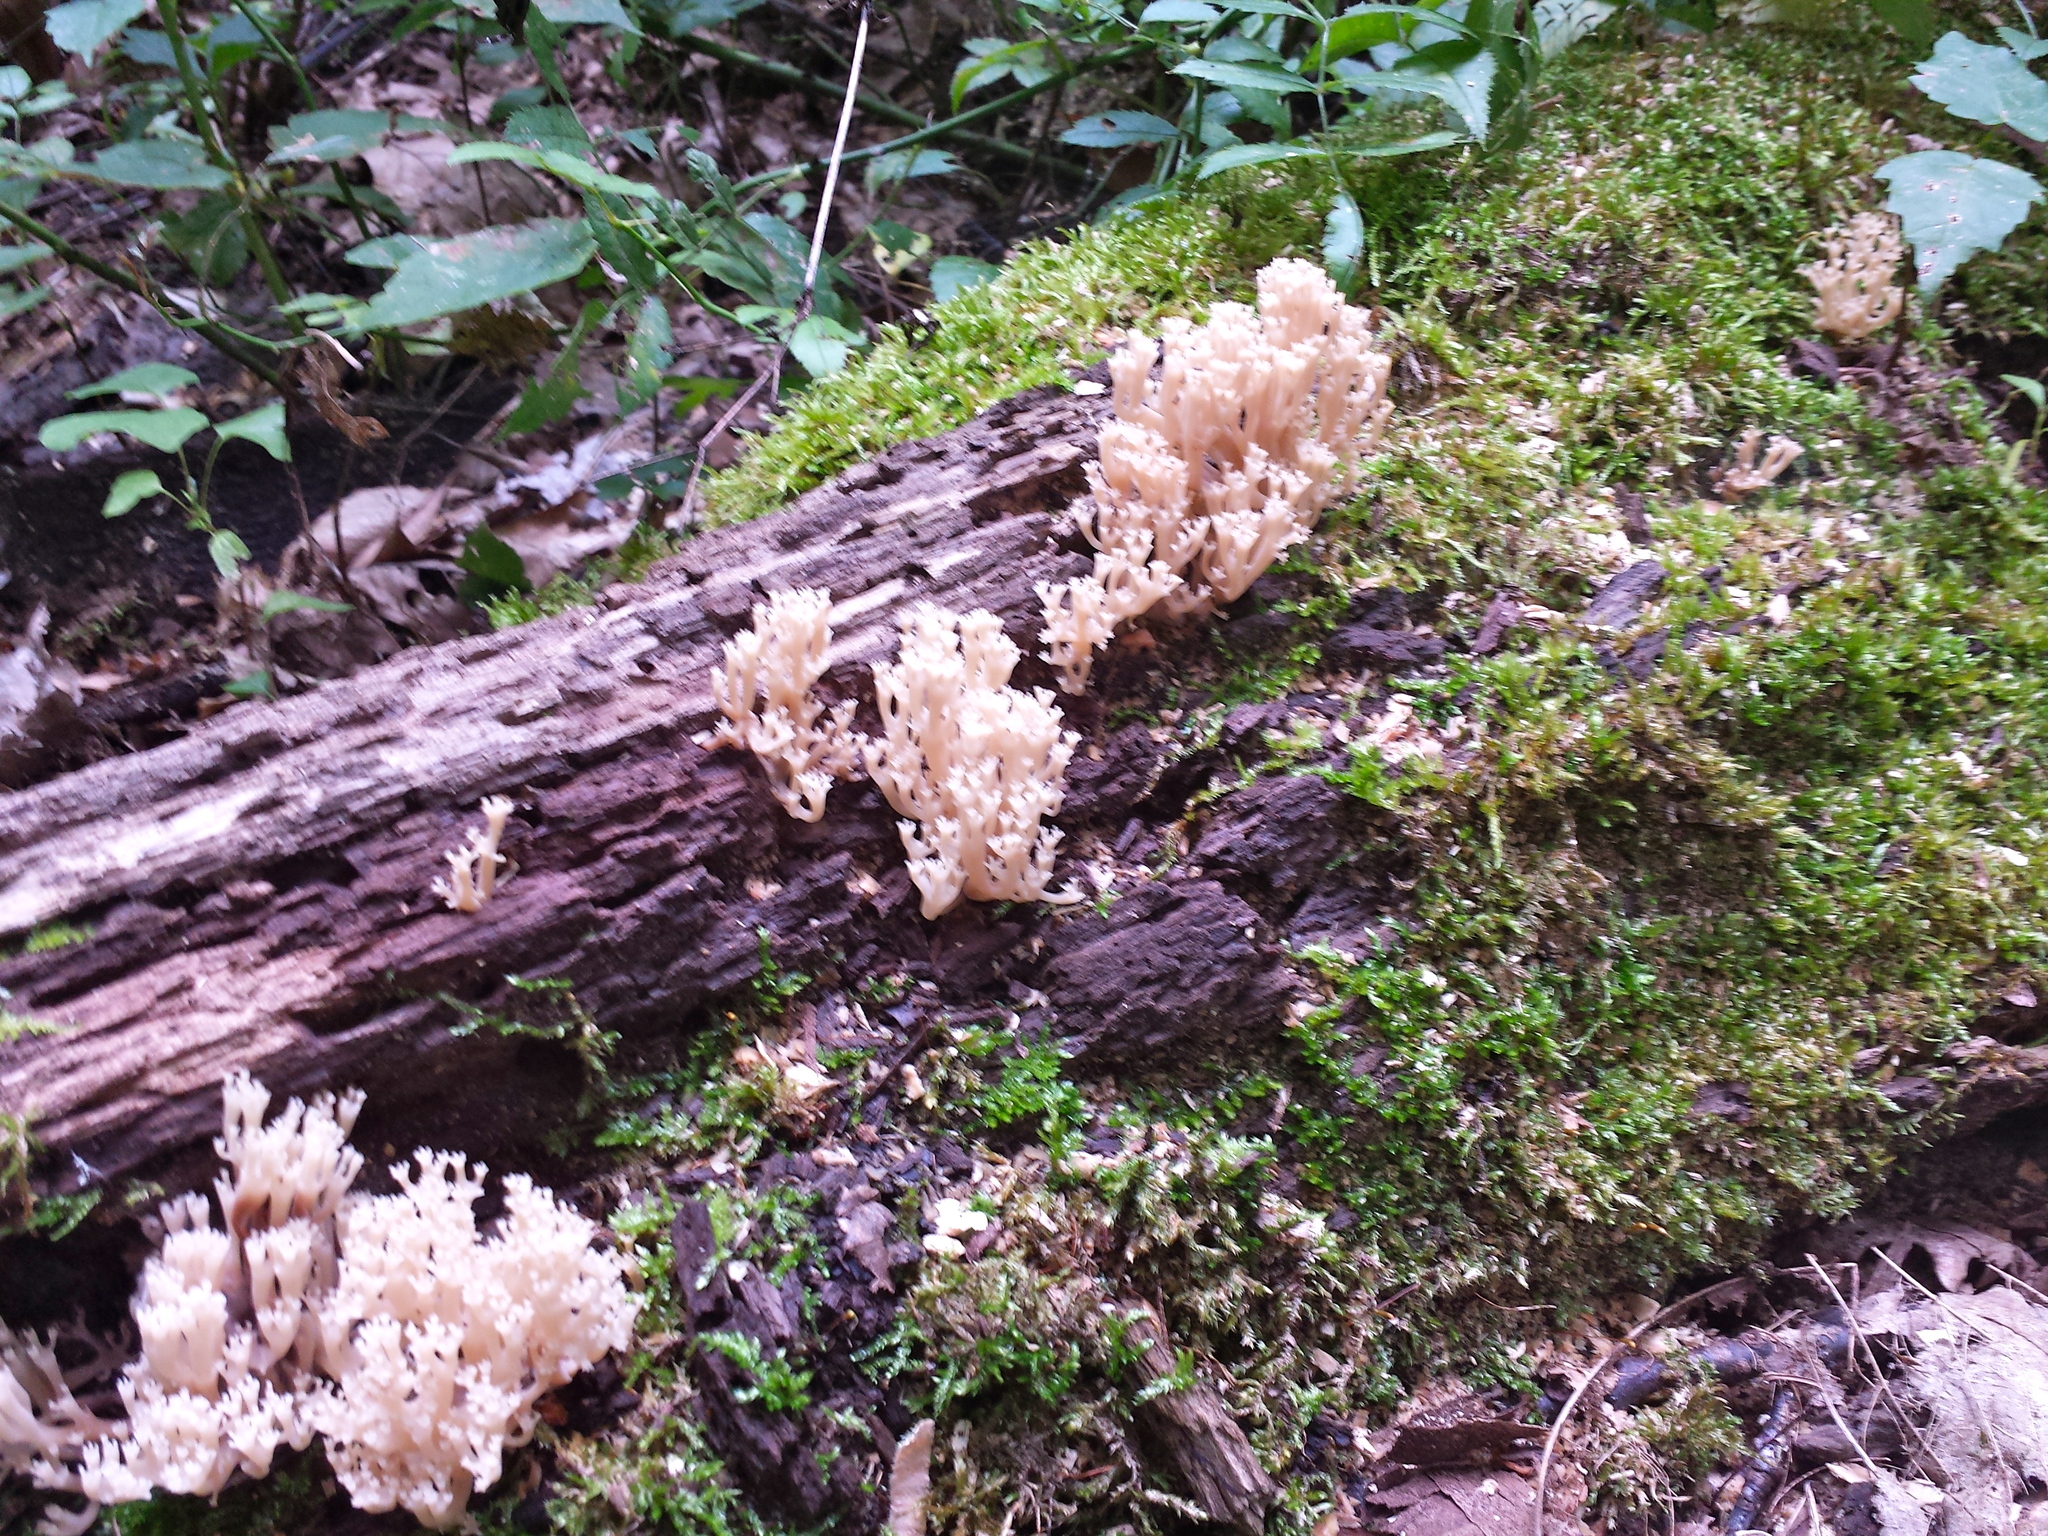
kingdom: Fungi
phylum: Basidiomycota
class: Agaricomycetes
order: Russulales
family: Auriscalpiaceae
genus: Artomyces
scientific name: Artomyces pyxidatus
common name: Crown-tipped coral fungus
